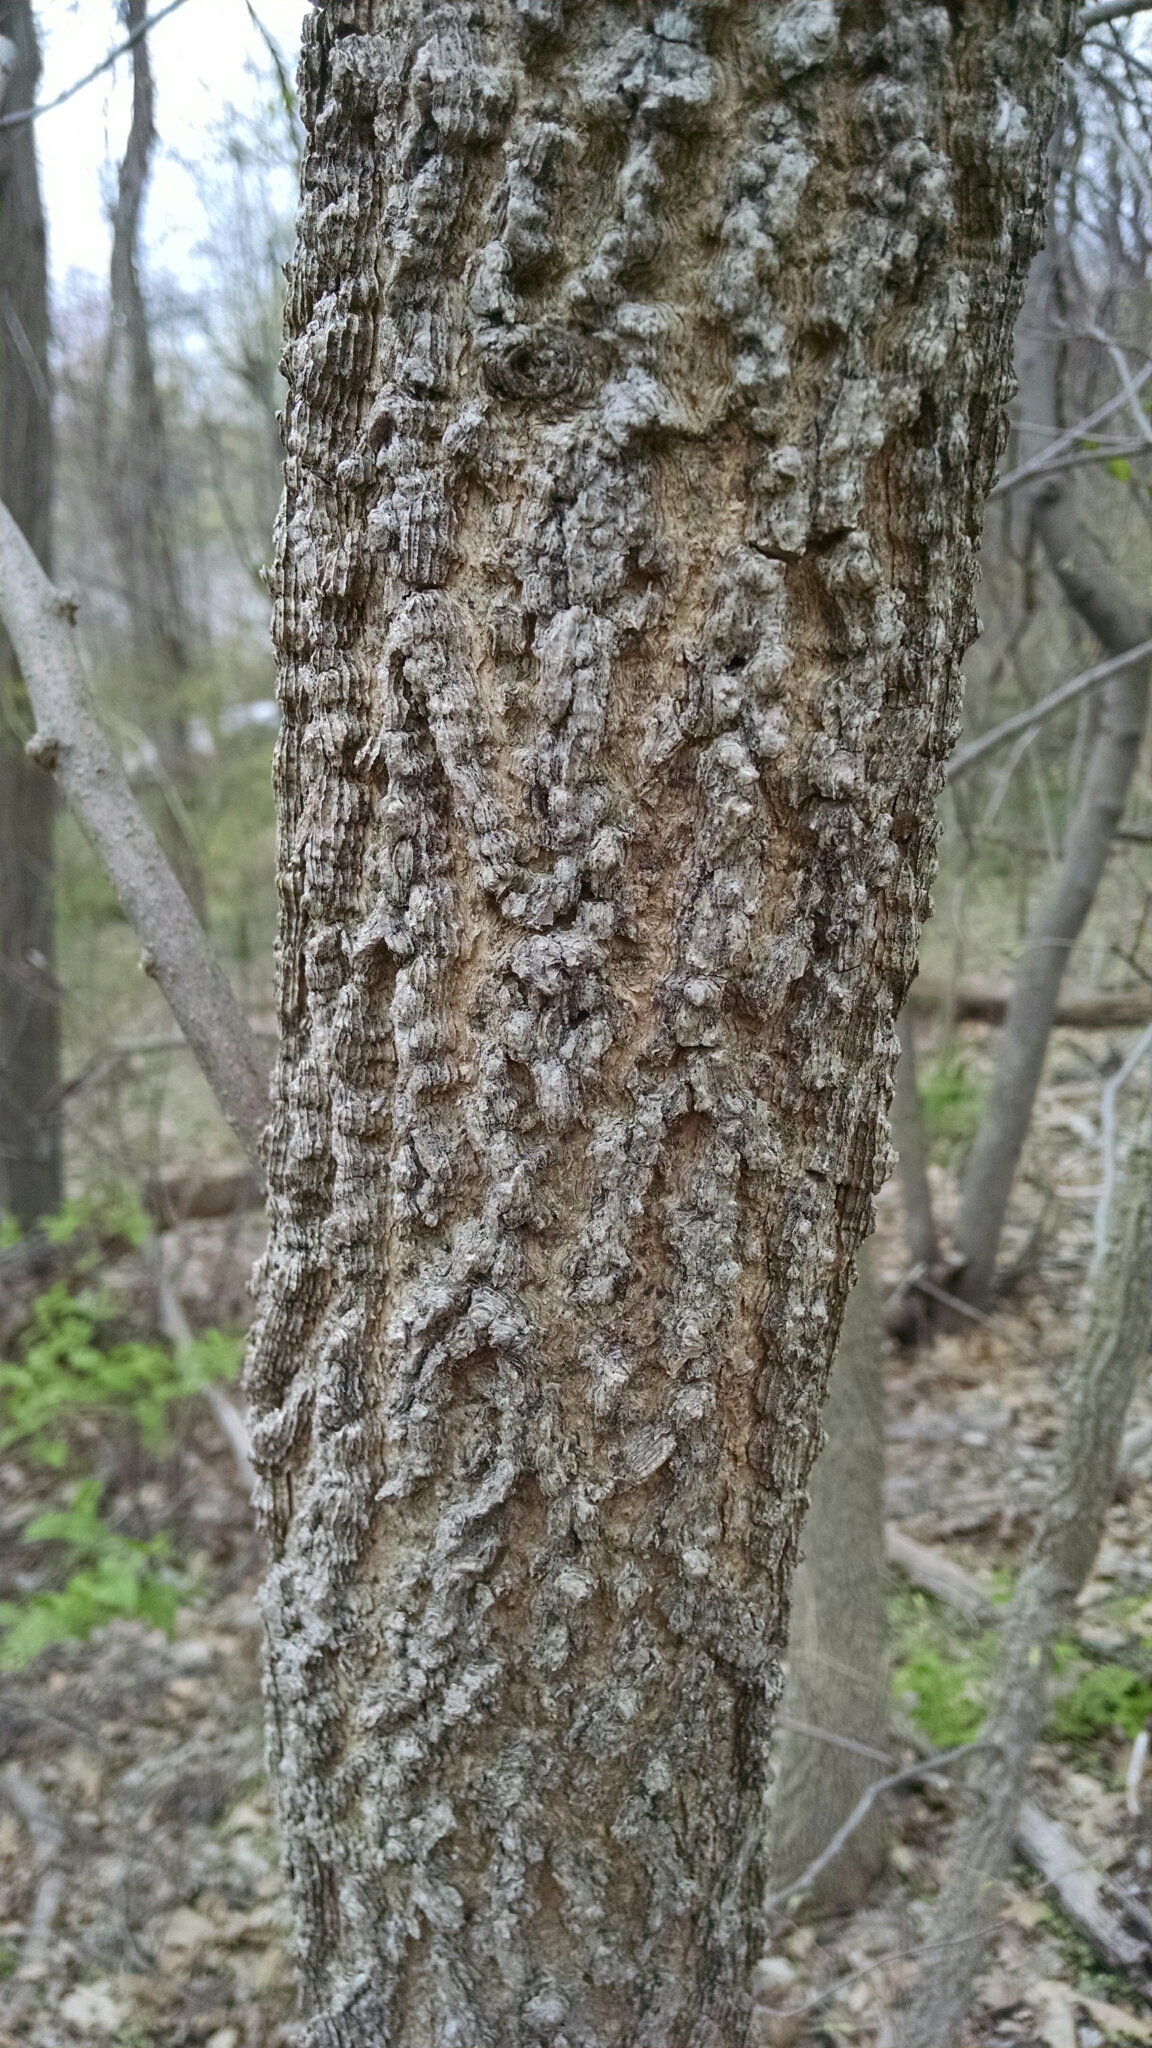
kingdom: Plantae
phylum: Tracheophyta
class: Magnoliopsida
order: Saxifragales
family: Altingiaceae
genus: Liquidambar
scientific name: Liquidambar styraciflua
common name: Sweet gum
